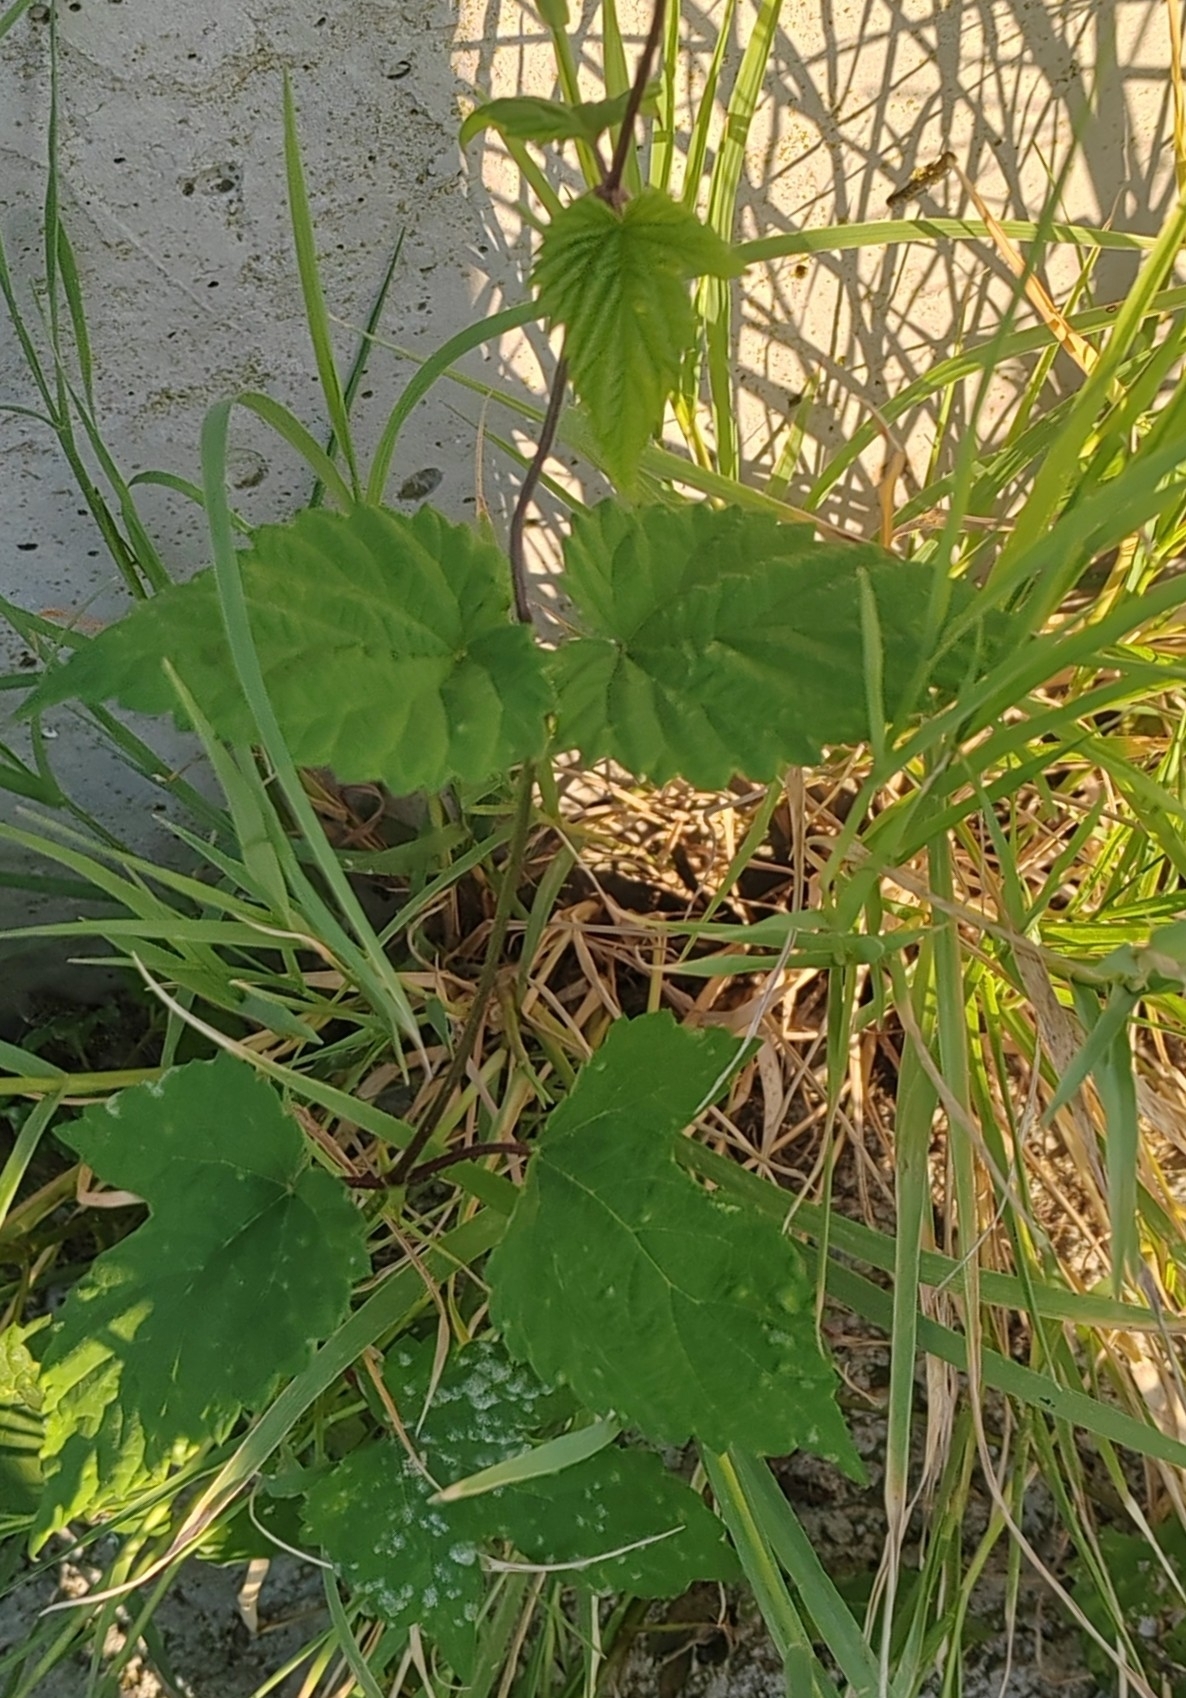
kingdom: Plantae
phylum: Tracheophyta
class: Magnoliopsida
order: Rosales
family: Cannabaceae
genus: Humulus
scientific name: Humulus lupulus
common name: Hop
